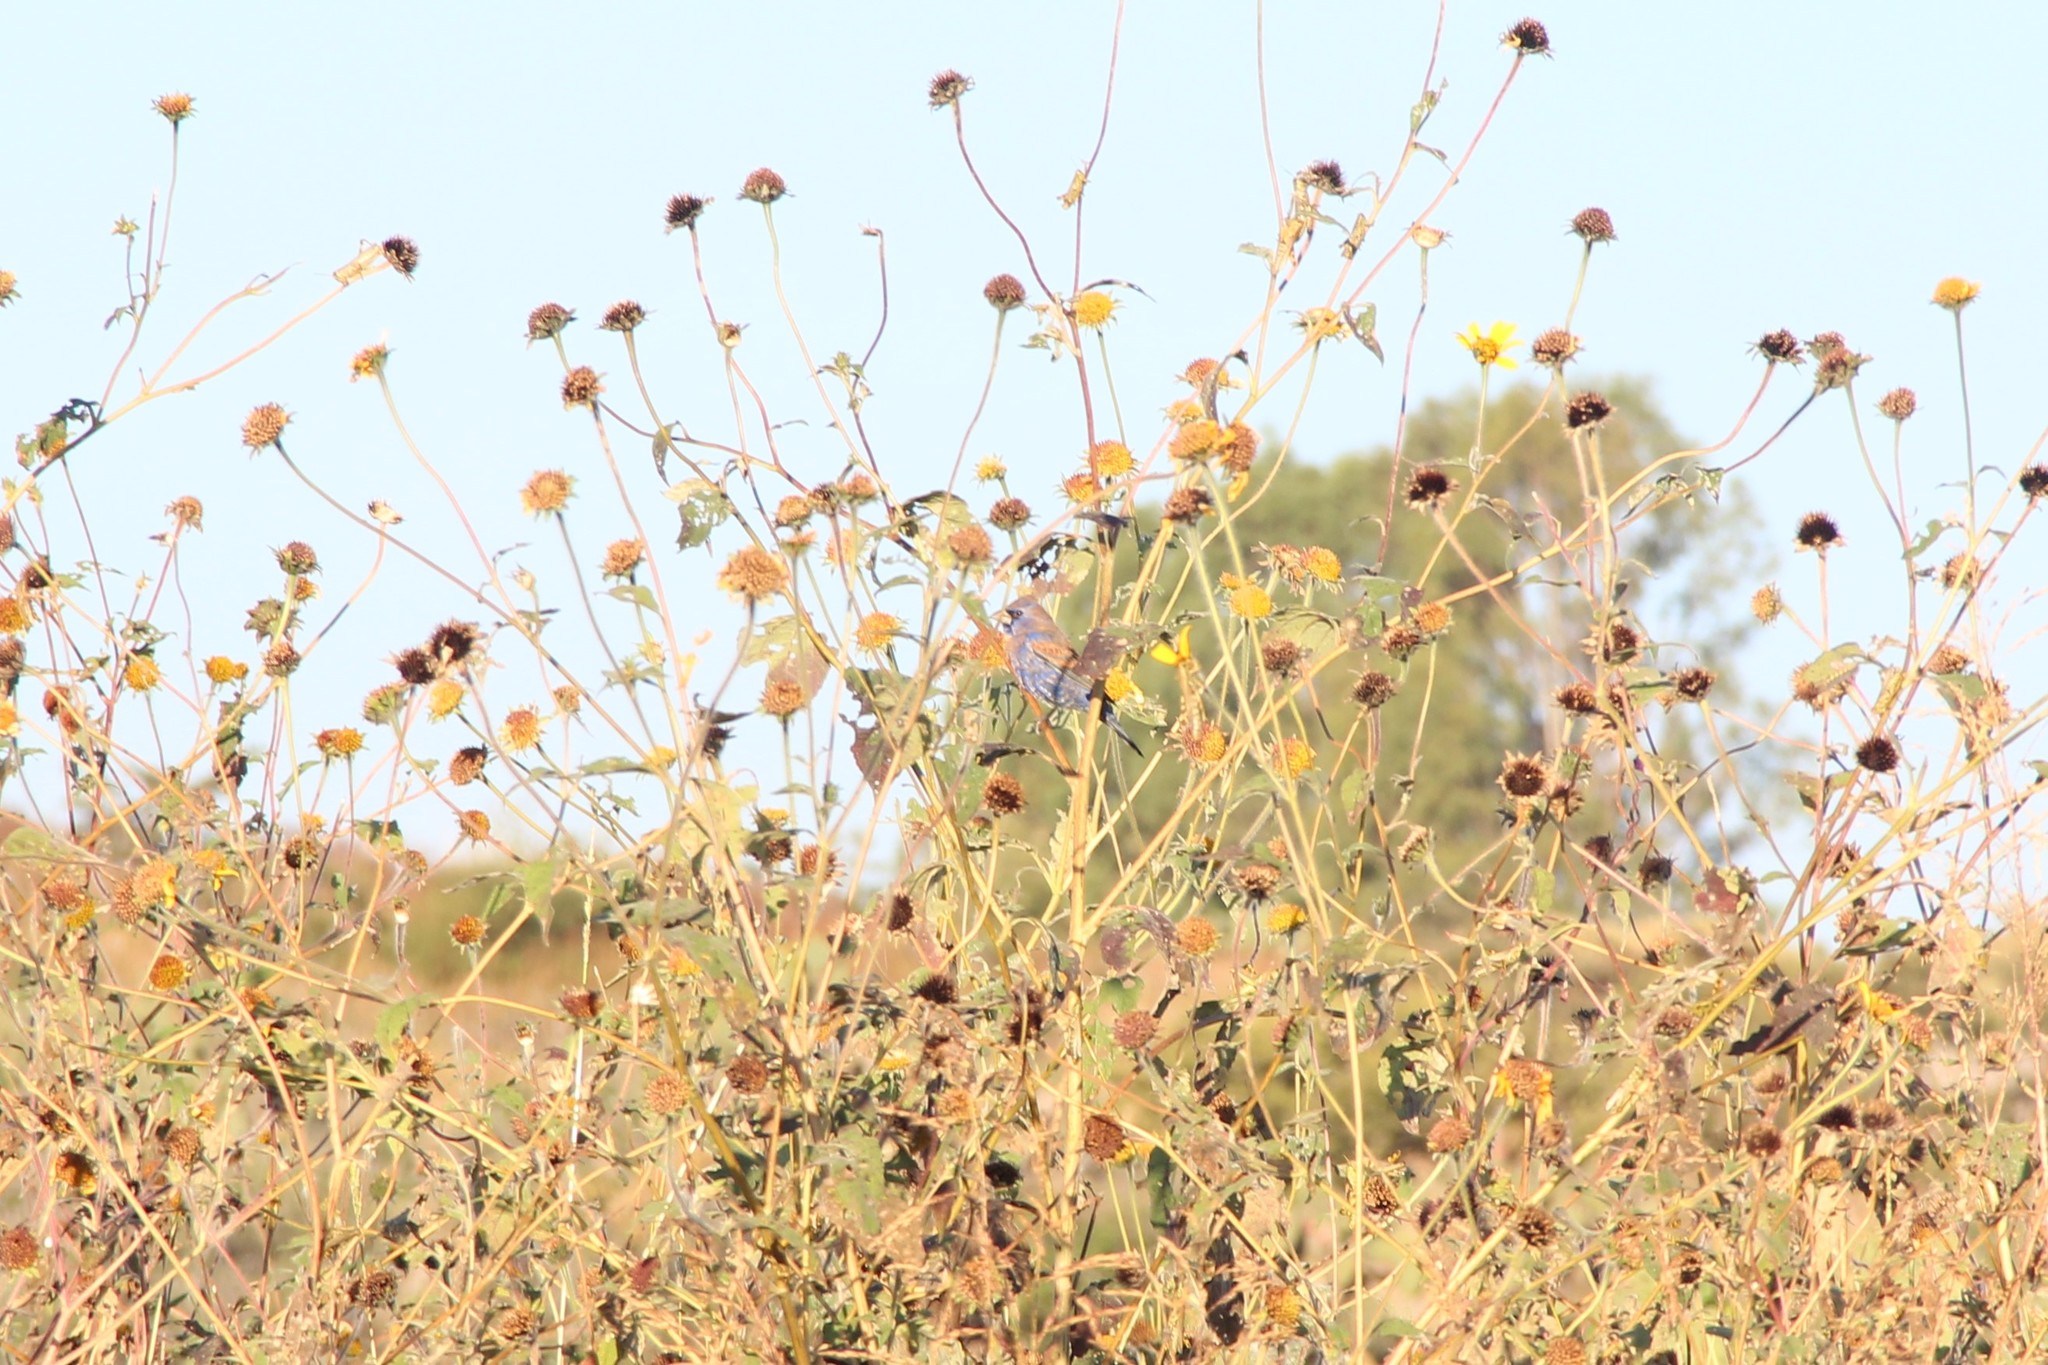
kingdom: Animalia
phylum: Chordata
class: Aves
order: Passeriformes
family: Cardinalidae
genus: Passerina
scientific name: Passerina caerulea
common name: Blue grosbeak
